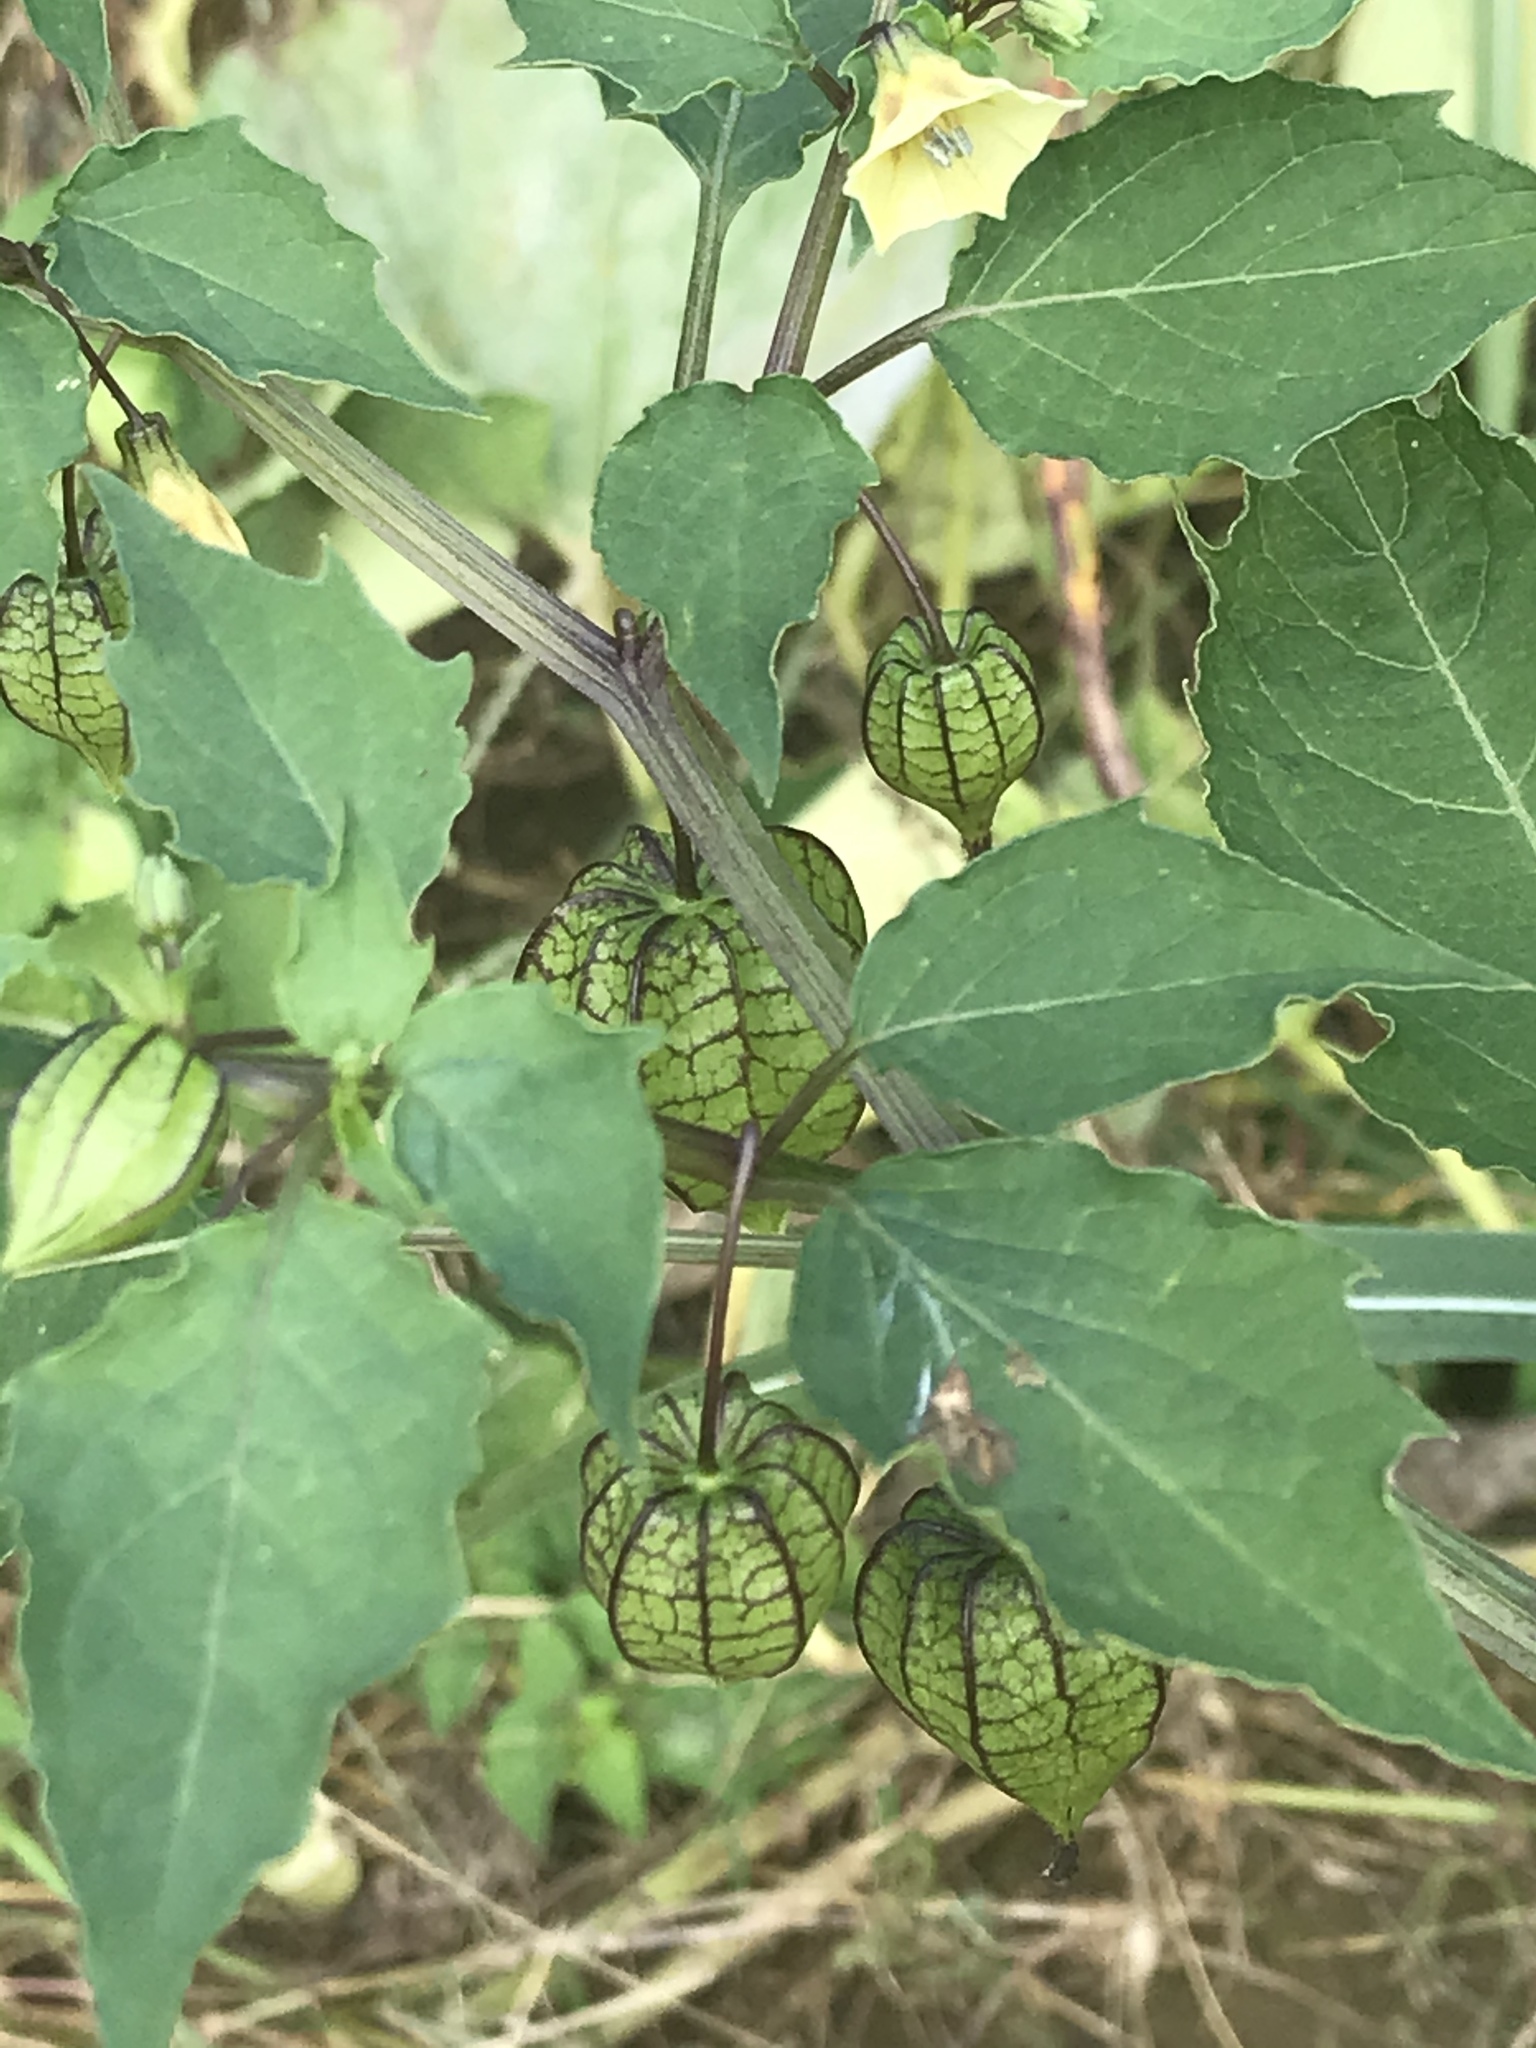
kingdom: Plantae
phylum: Tracheophyta
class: Magnoliopsida
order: Solanales
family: Solanaceae
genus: Physalis
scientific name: Physalis angulata
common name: Angular winter-cherry
